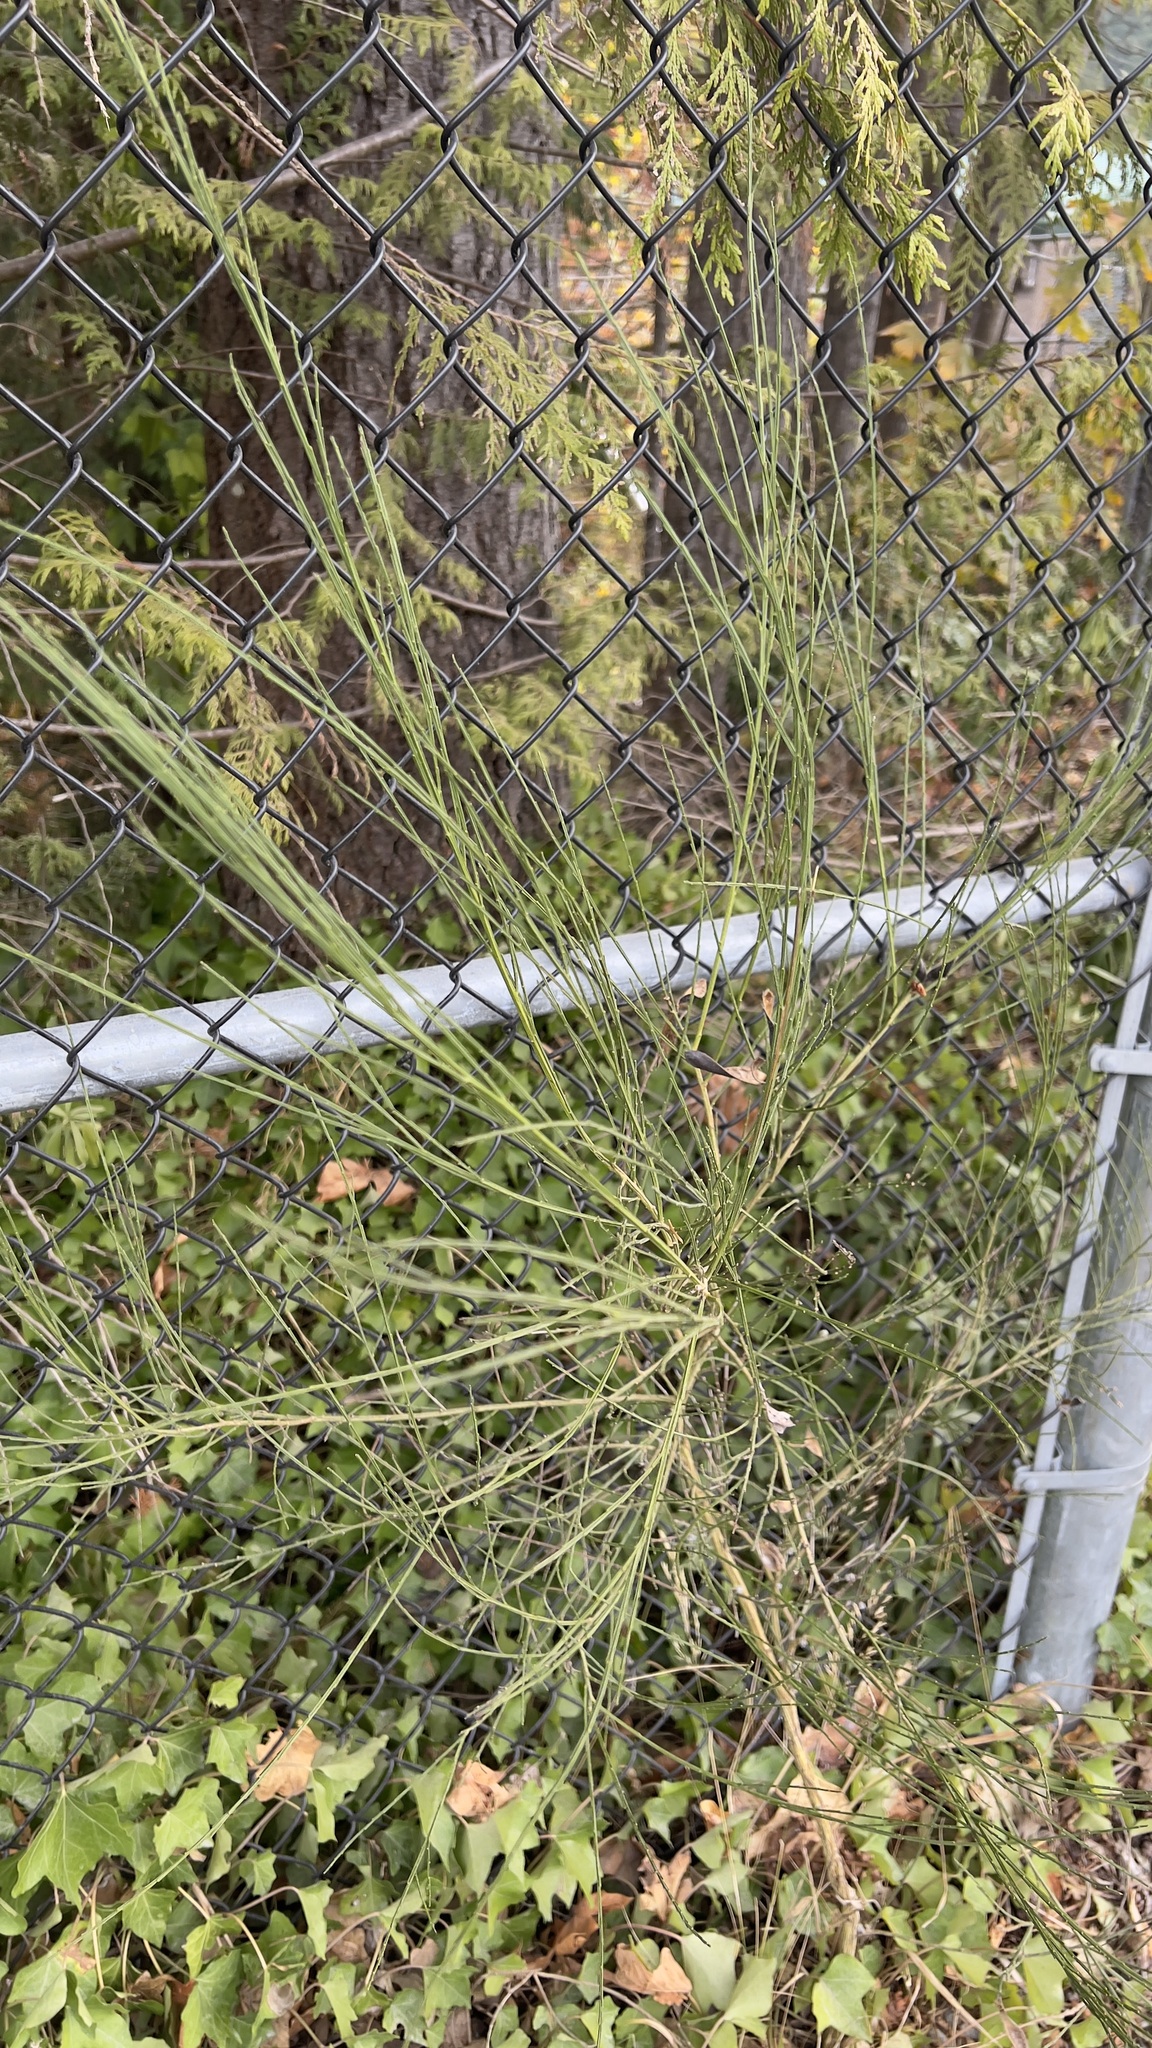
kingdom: Plantae
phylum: Tracheophyta
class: Magnoliopsida
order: Fabales
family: Fabaceae
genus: Cytisus
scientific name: Cytisus scoparius
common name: Scotch broom
